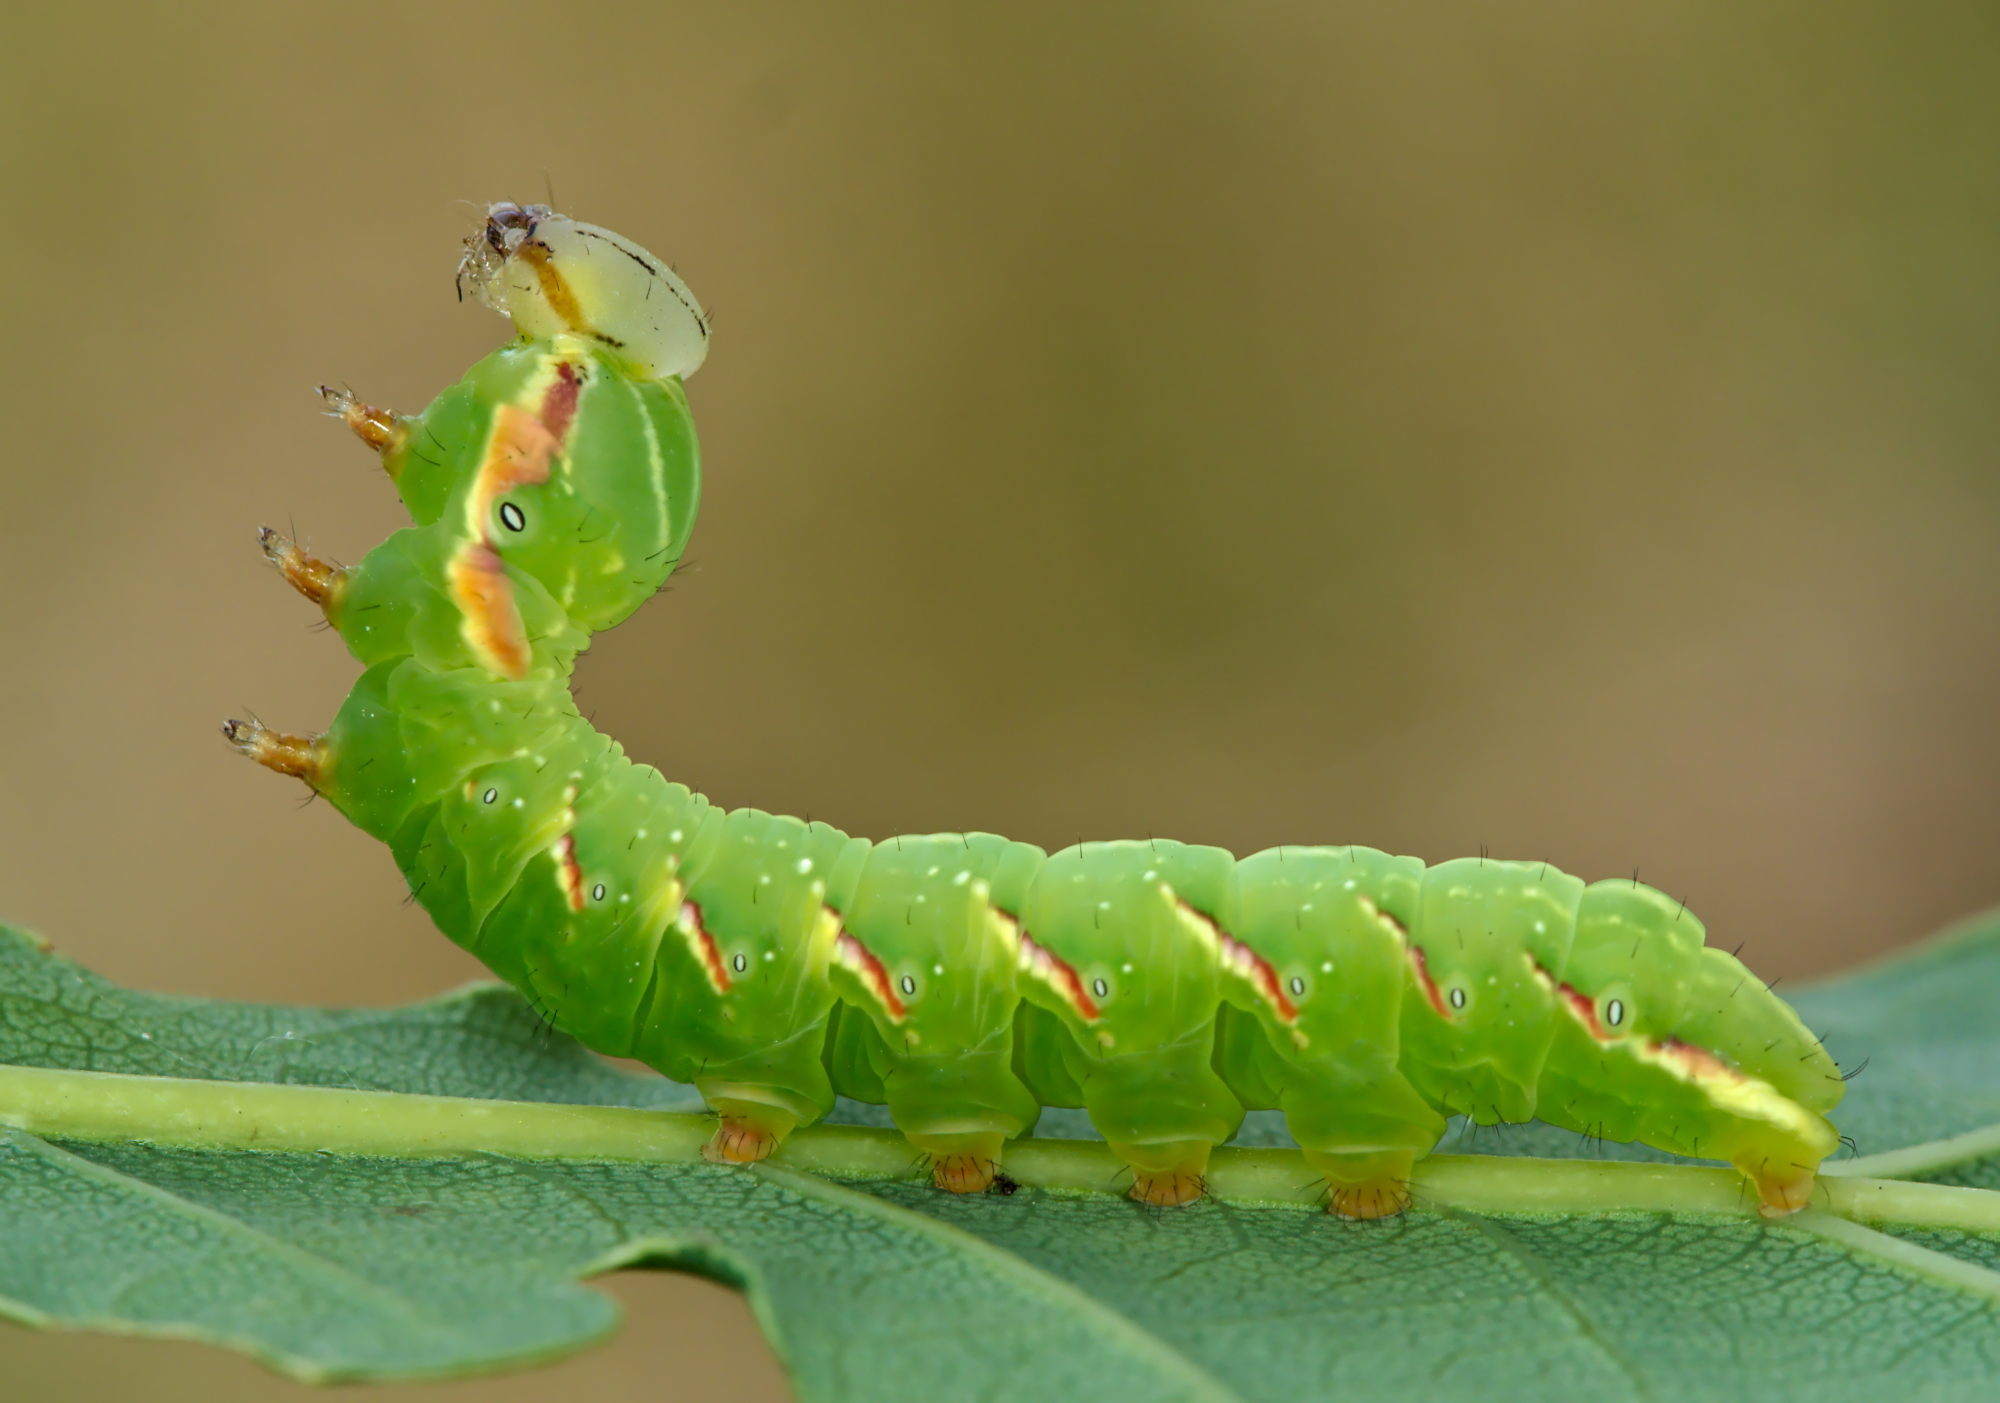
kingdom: Animalia
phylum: Arthropoda
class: Insecta
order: Lepidoptera
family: Notodontidae
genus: Peridea
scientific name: Peridea anceps
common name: Great prominent
